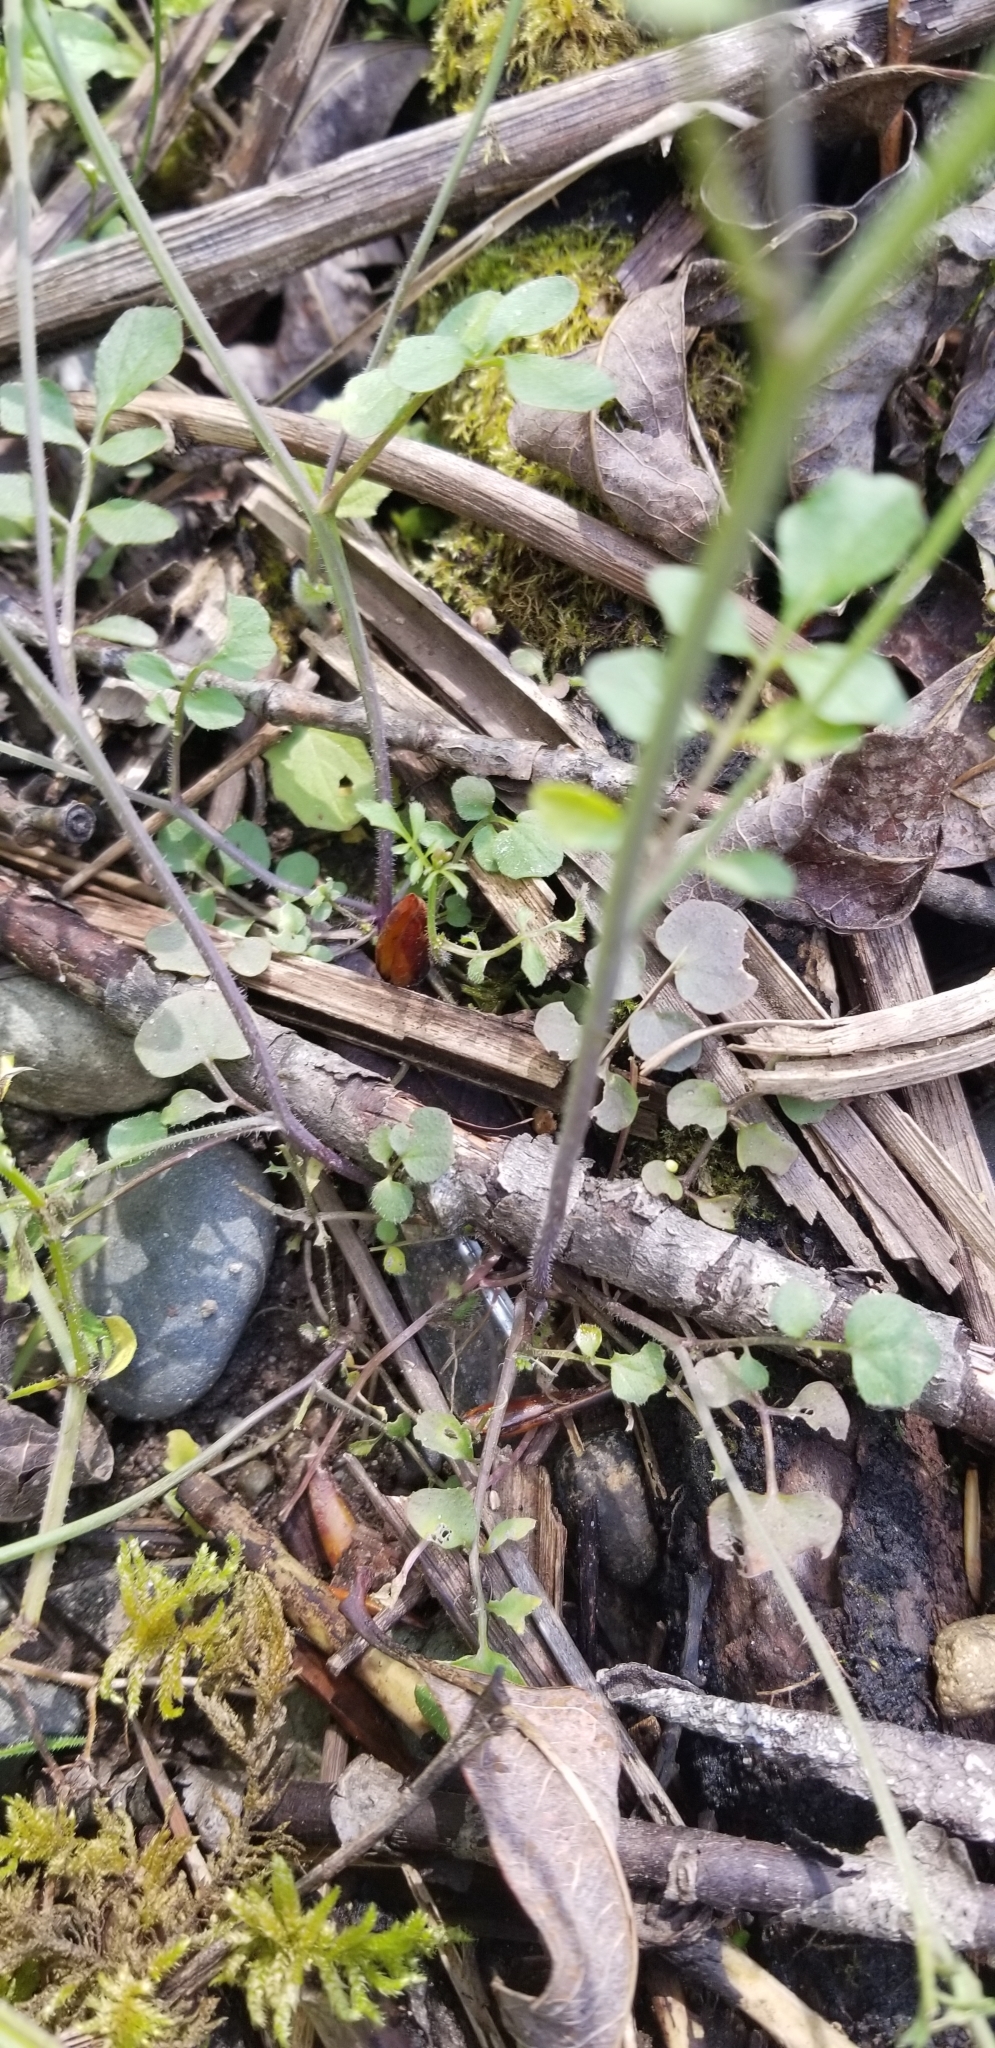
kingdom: Plantae
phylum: Tracheophyta
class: Magnoliopsida
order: Brassicales
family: Brassicaceae
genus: Cardamine
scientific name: Cardamine hirsuta
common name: Hairy bittercress
